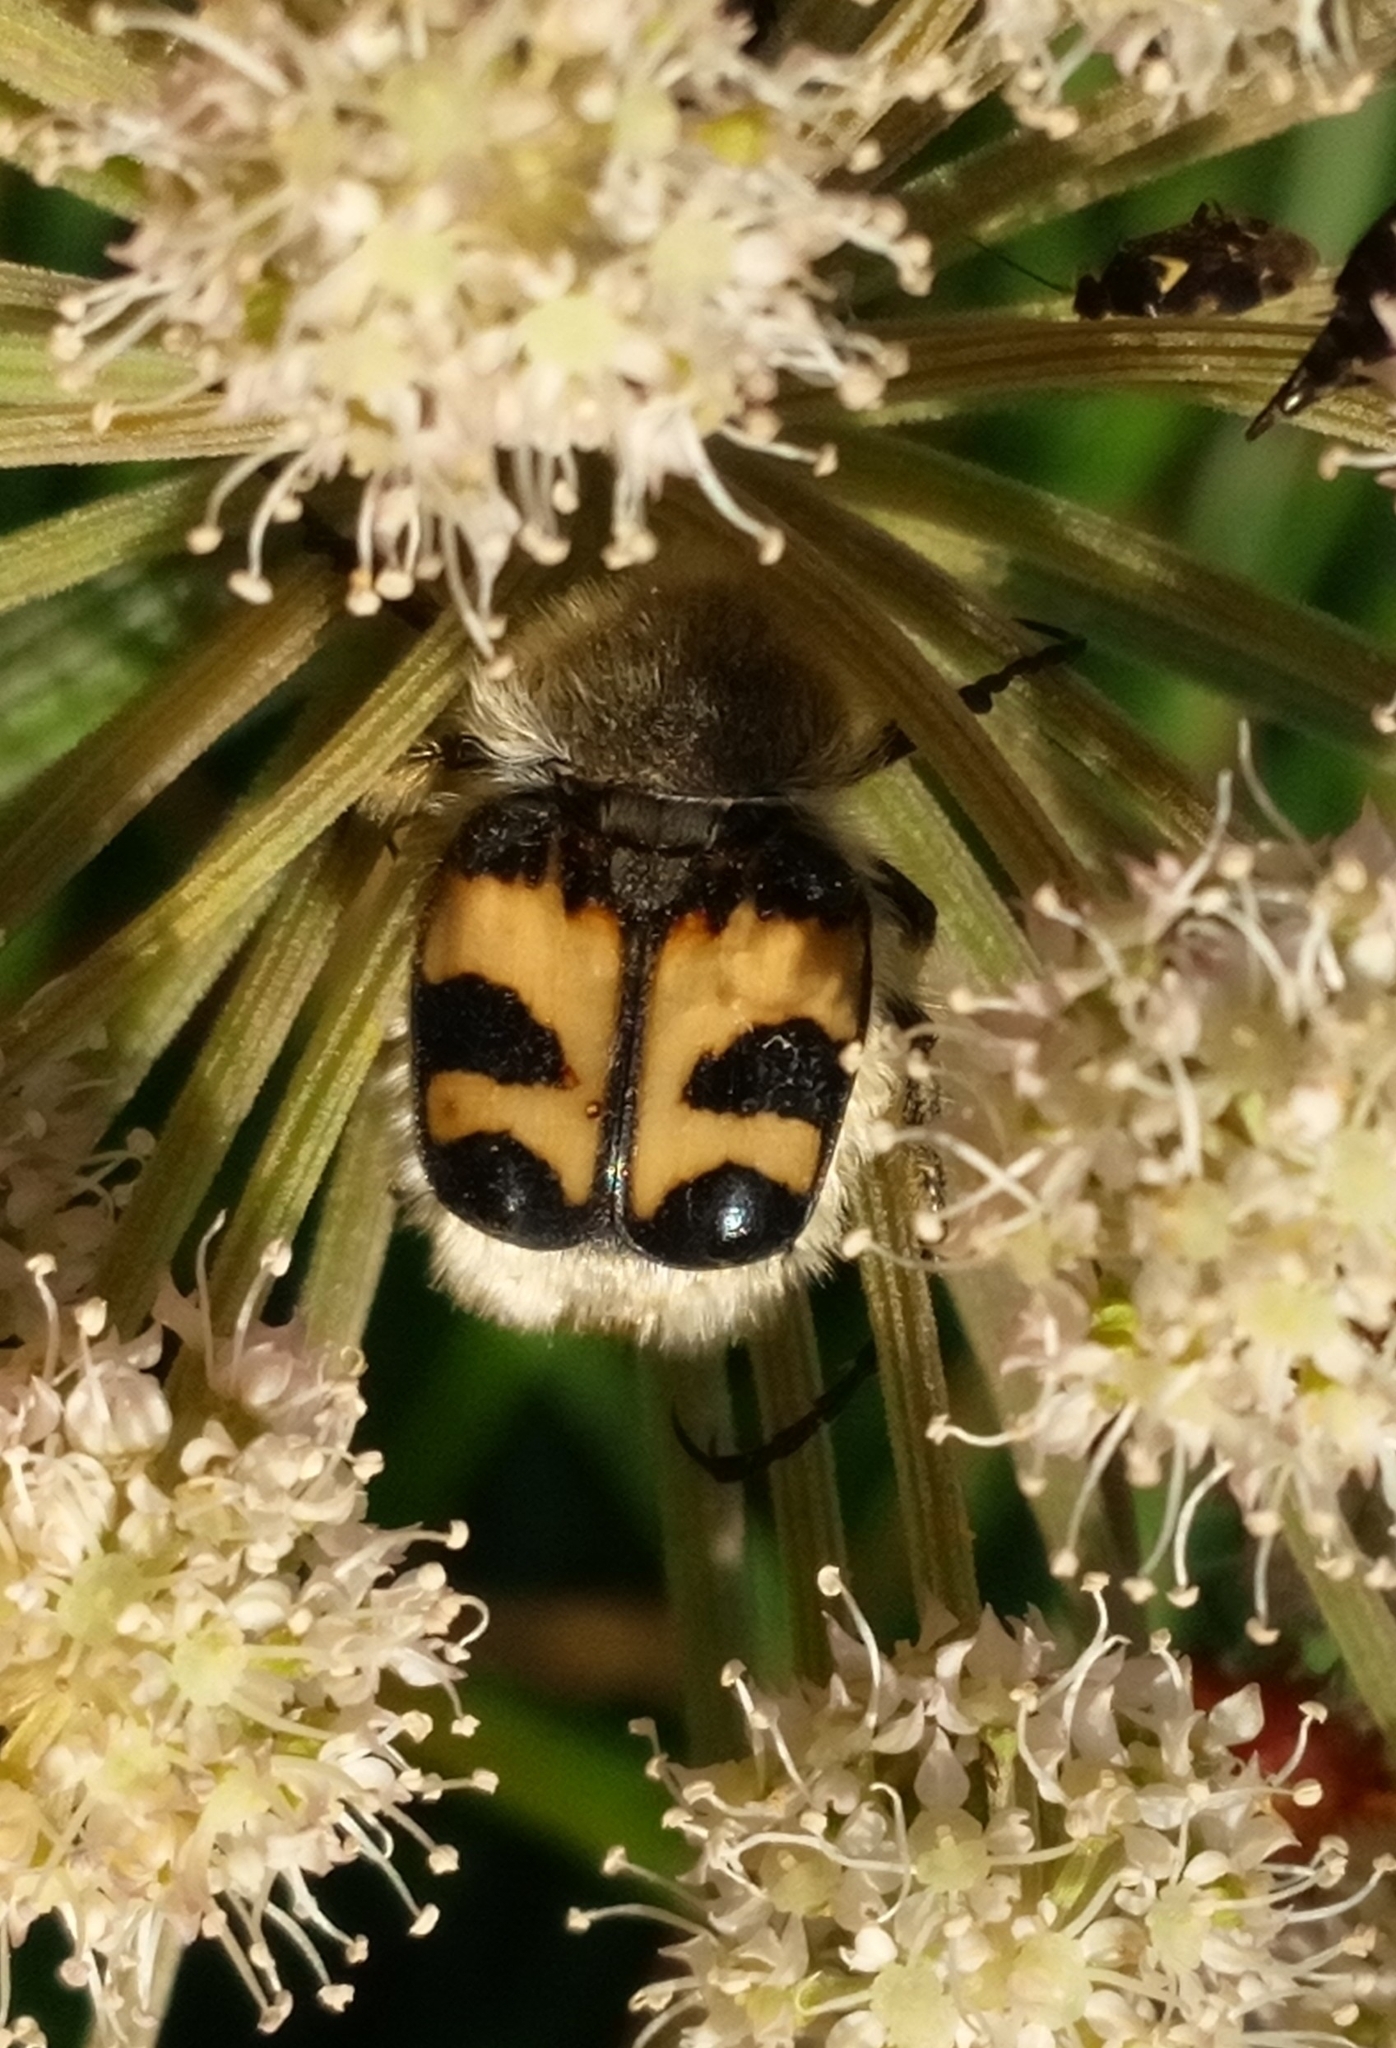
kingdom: Animalia
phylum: Arthropoda
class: Insecta
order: Coleoptera
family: Scarabaeidae
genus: Trichius
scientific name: Trichius fasciatus
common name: Bee beetle
